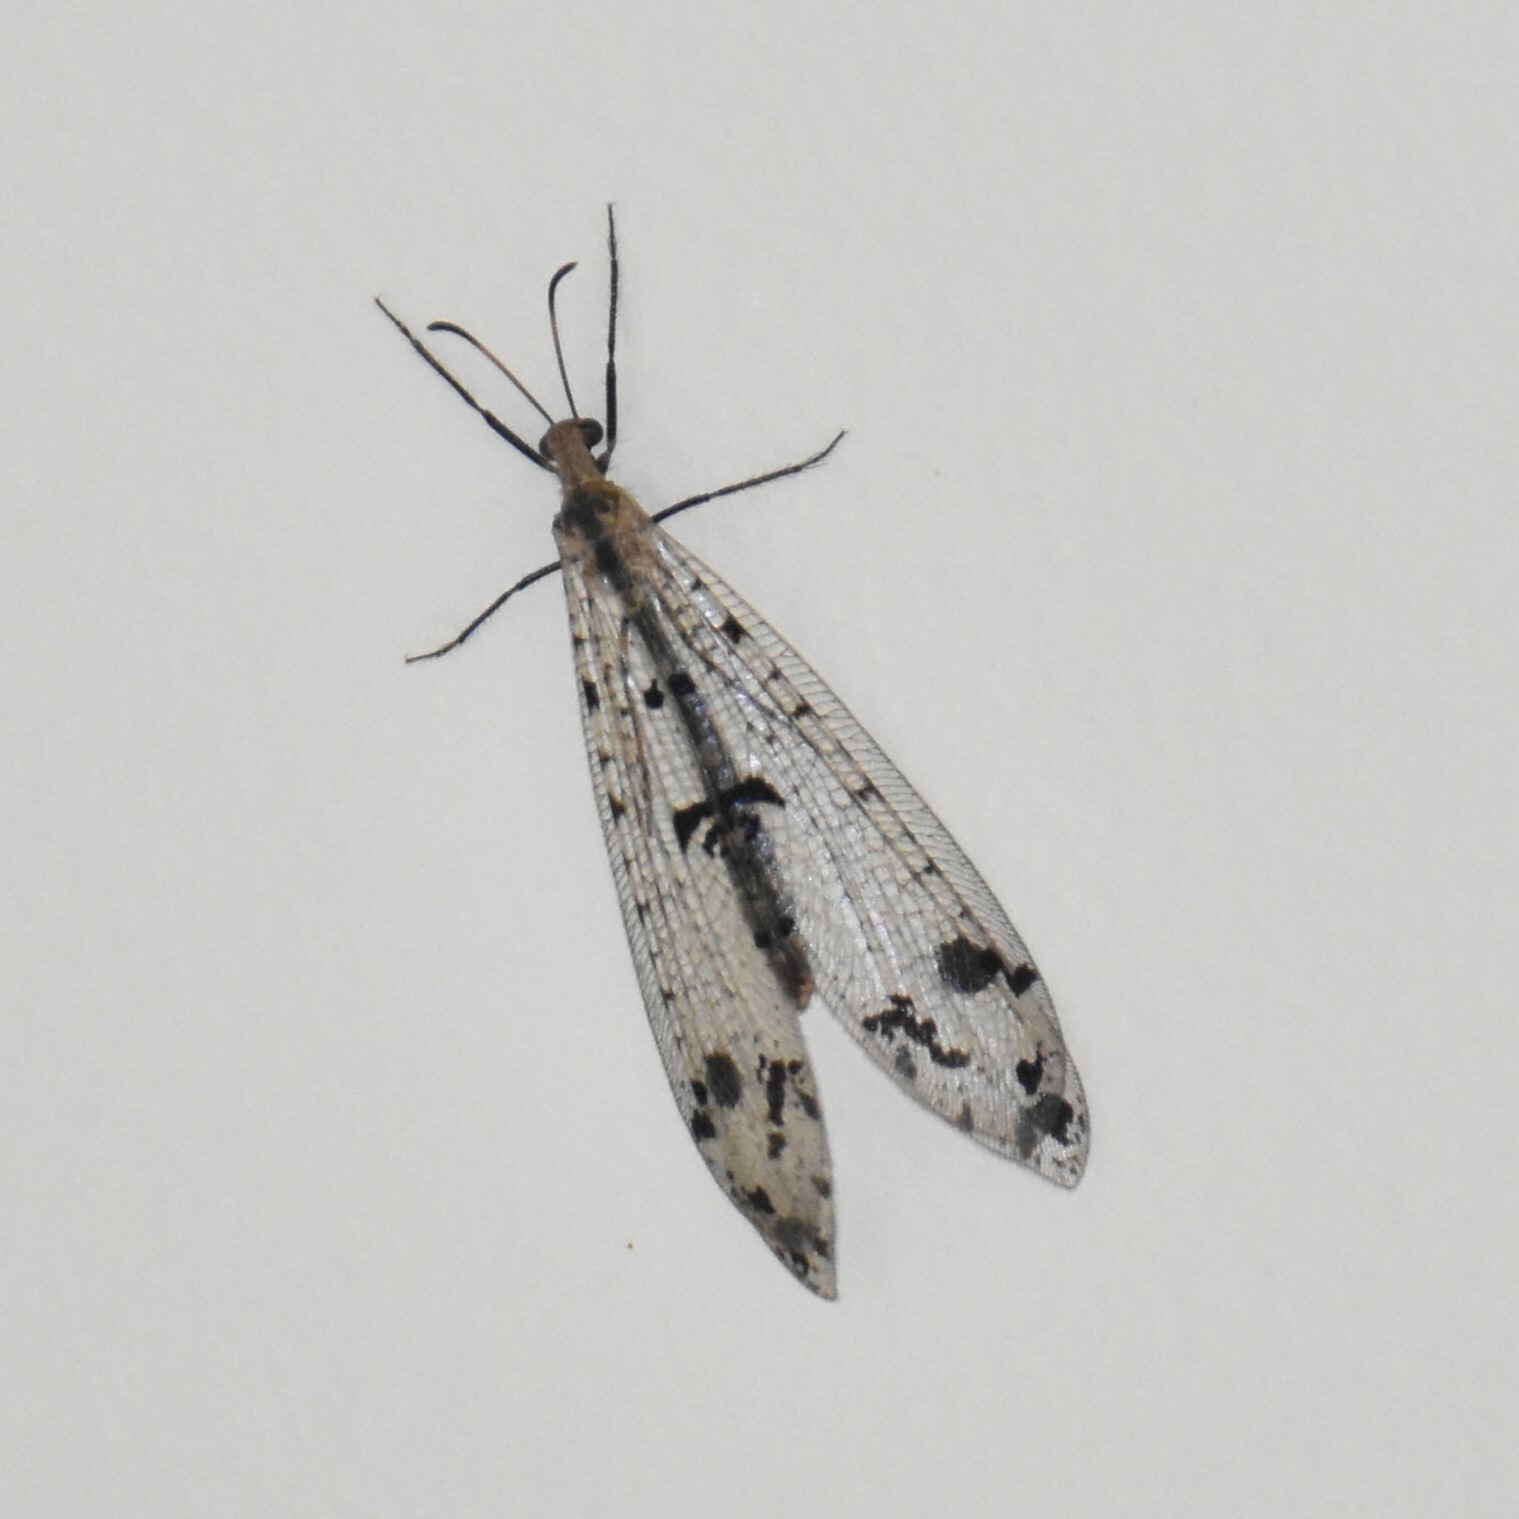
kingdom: Animalia
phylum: Arthropoda
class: Insecta
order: Neuroptera
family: Myrmeleontidae
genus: Dendroleon
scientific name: Dendroleon obsoletus
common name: Eastern spotted-winged antlion
